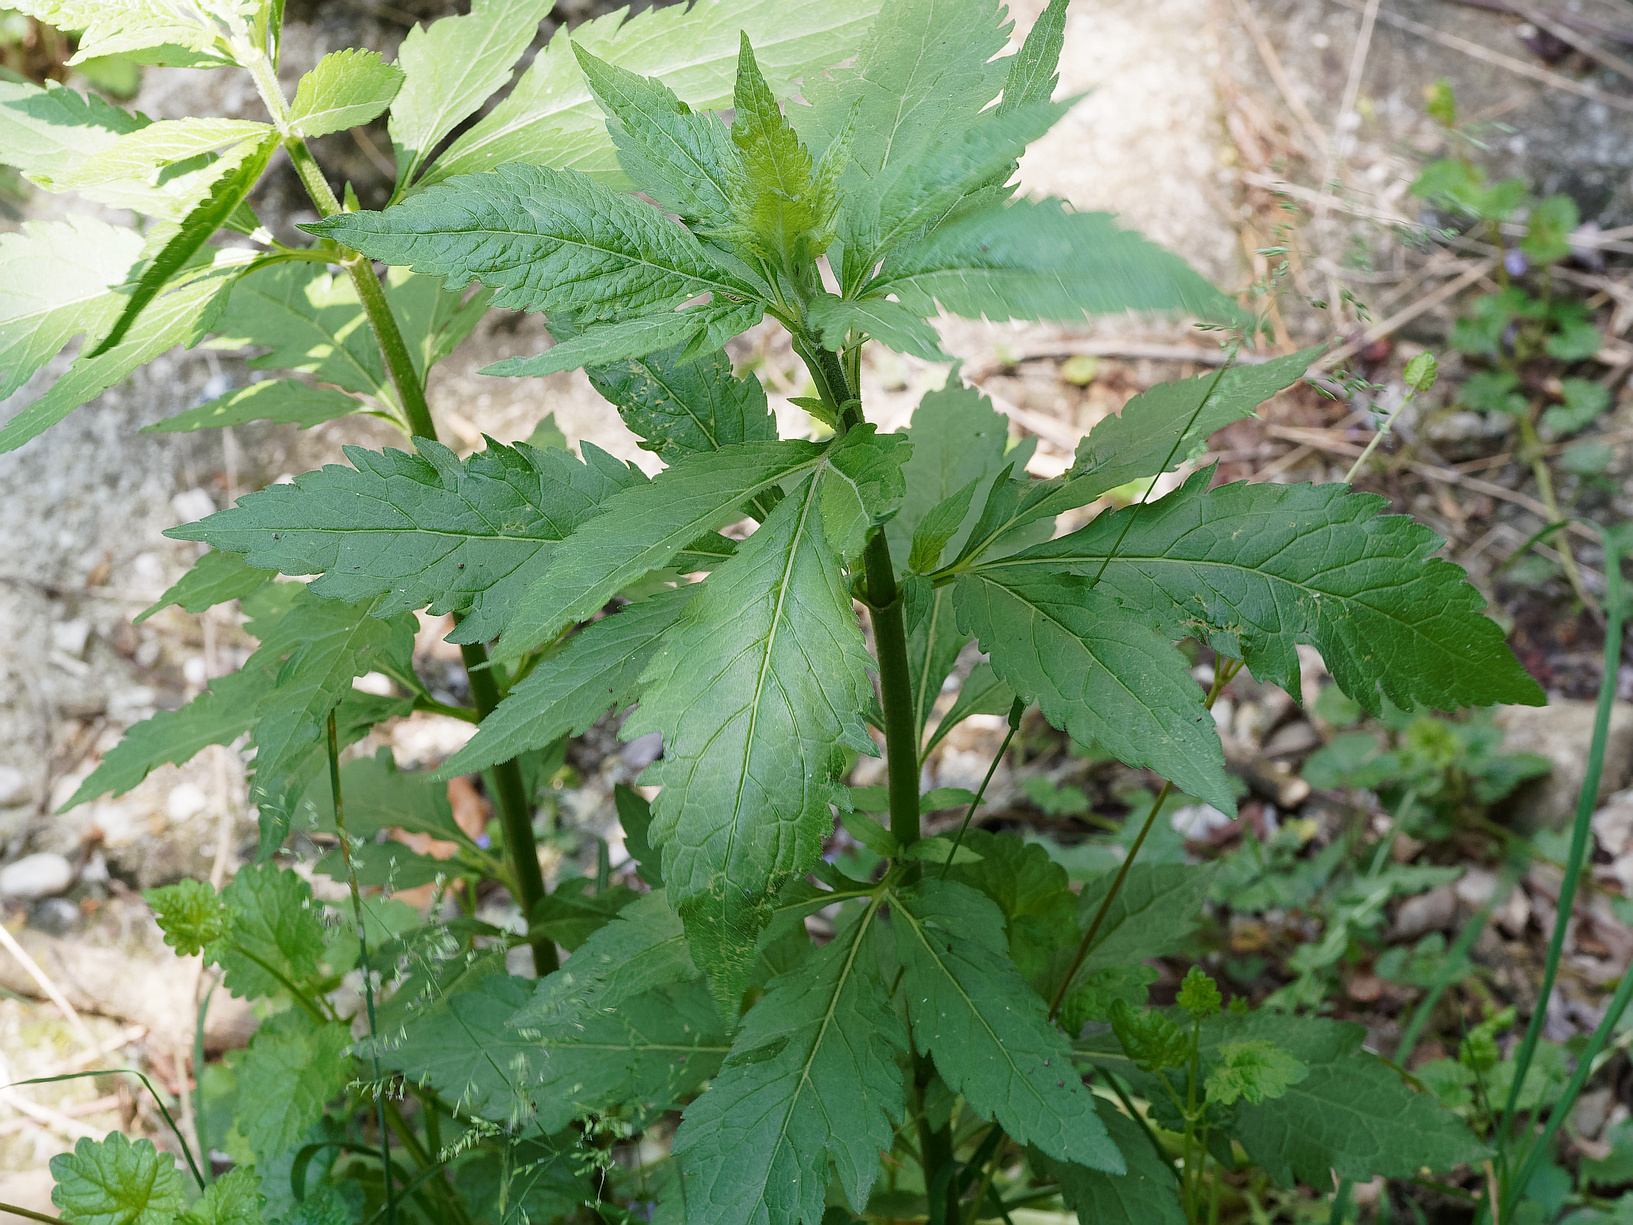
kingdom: Plantae
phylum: Tracheophyta
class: Magnoliopsida
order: Asterales
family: Asteraceae
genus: Eupatorium
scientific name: Eupatorium cannabinum
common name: Hemp-agrimony
